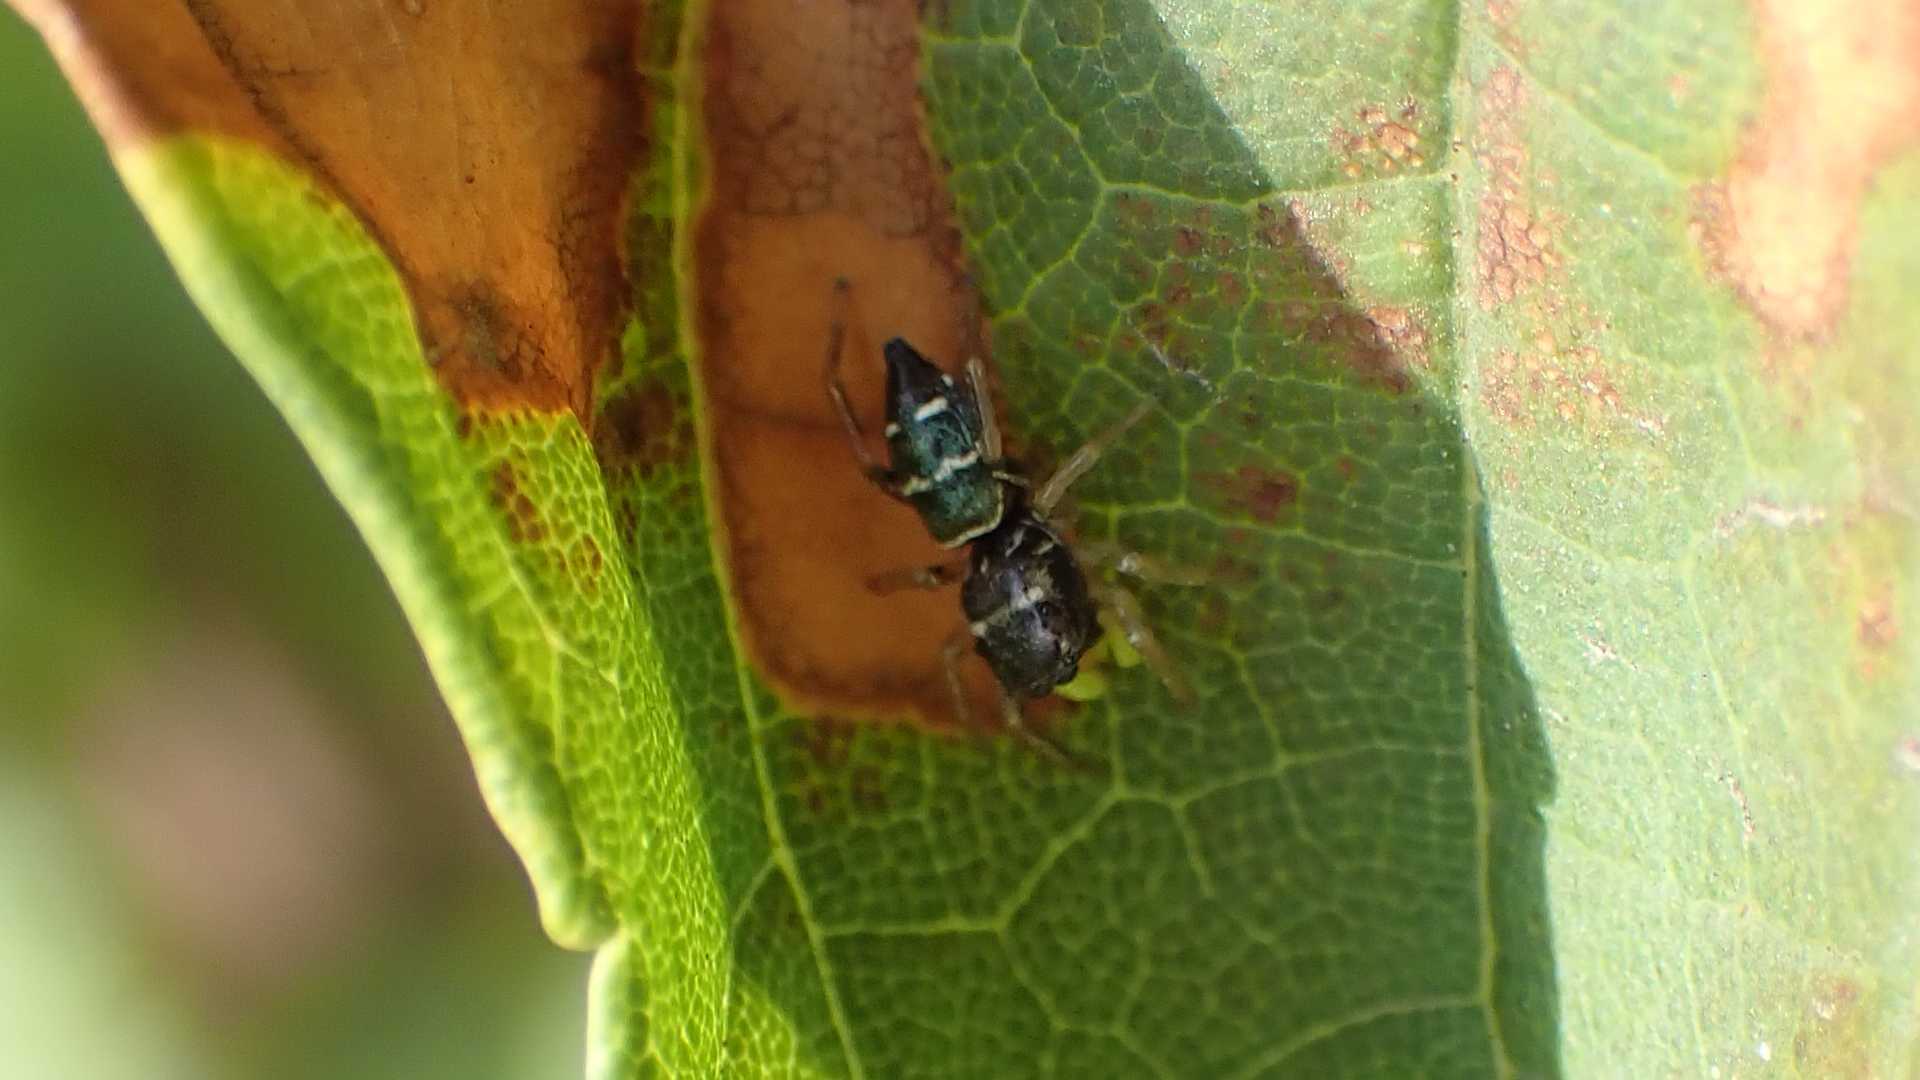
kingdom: Animalia
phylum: Arthropoda
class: Arachnida
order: Araneae
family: Salticidae
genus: Heliophanus
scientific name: Heliophanus cupreus
